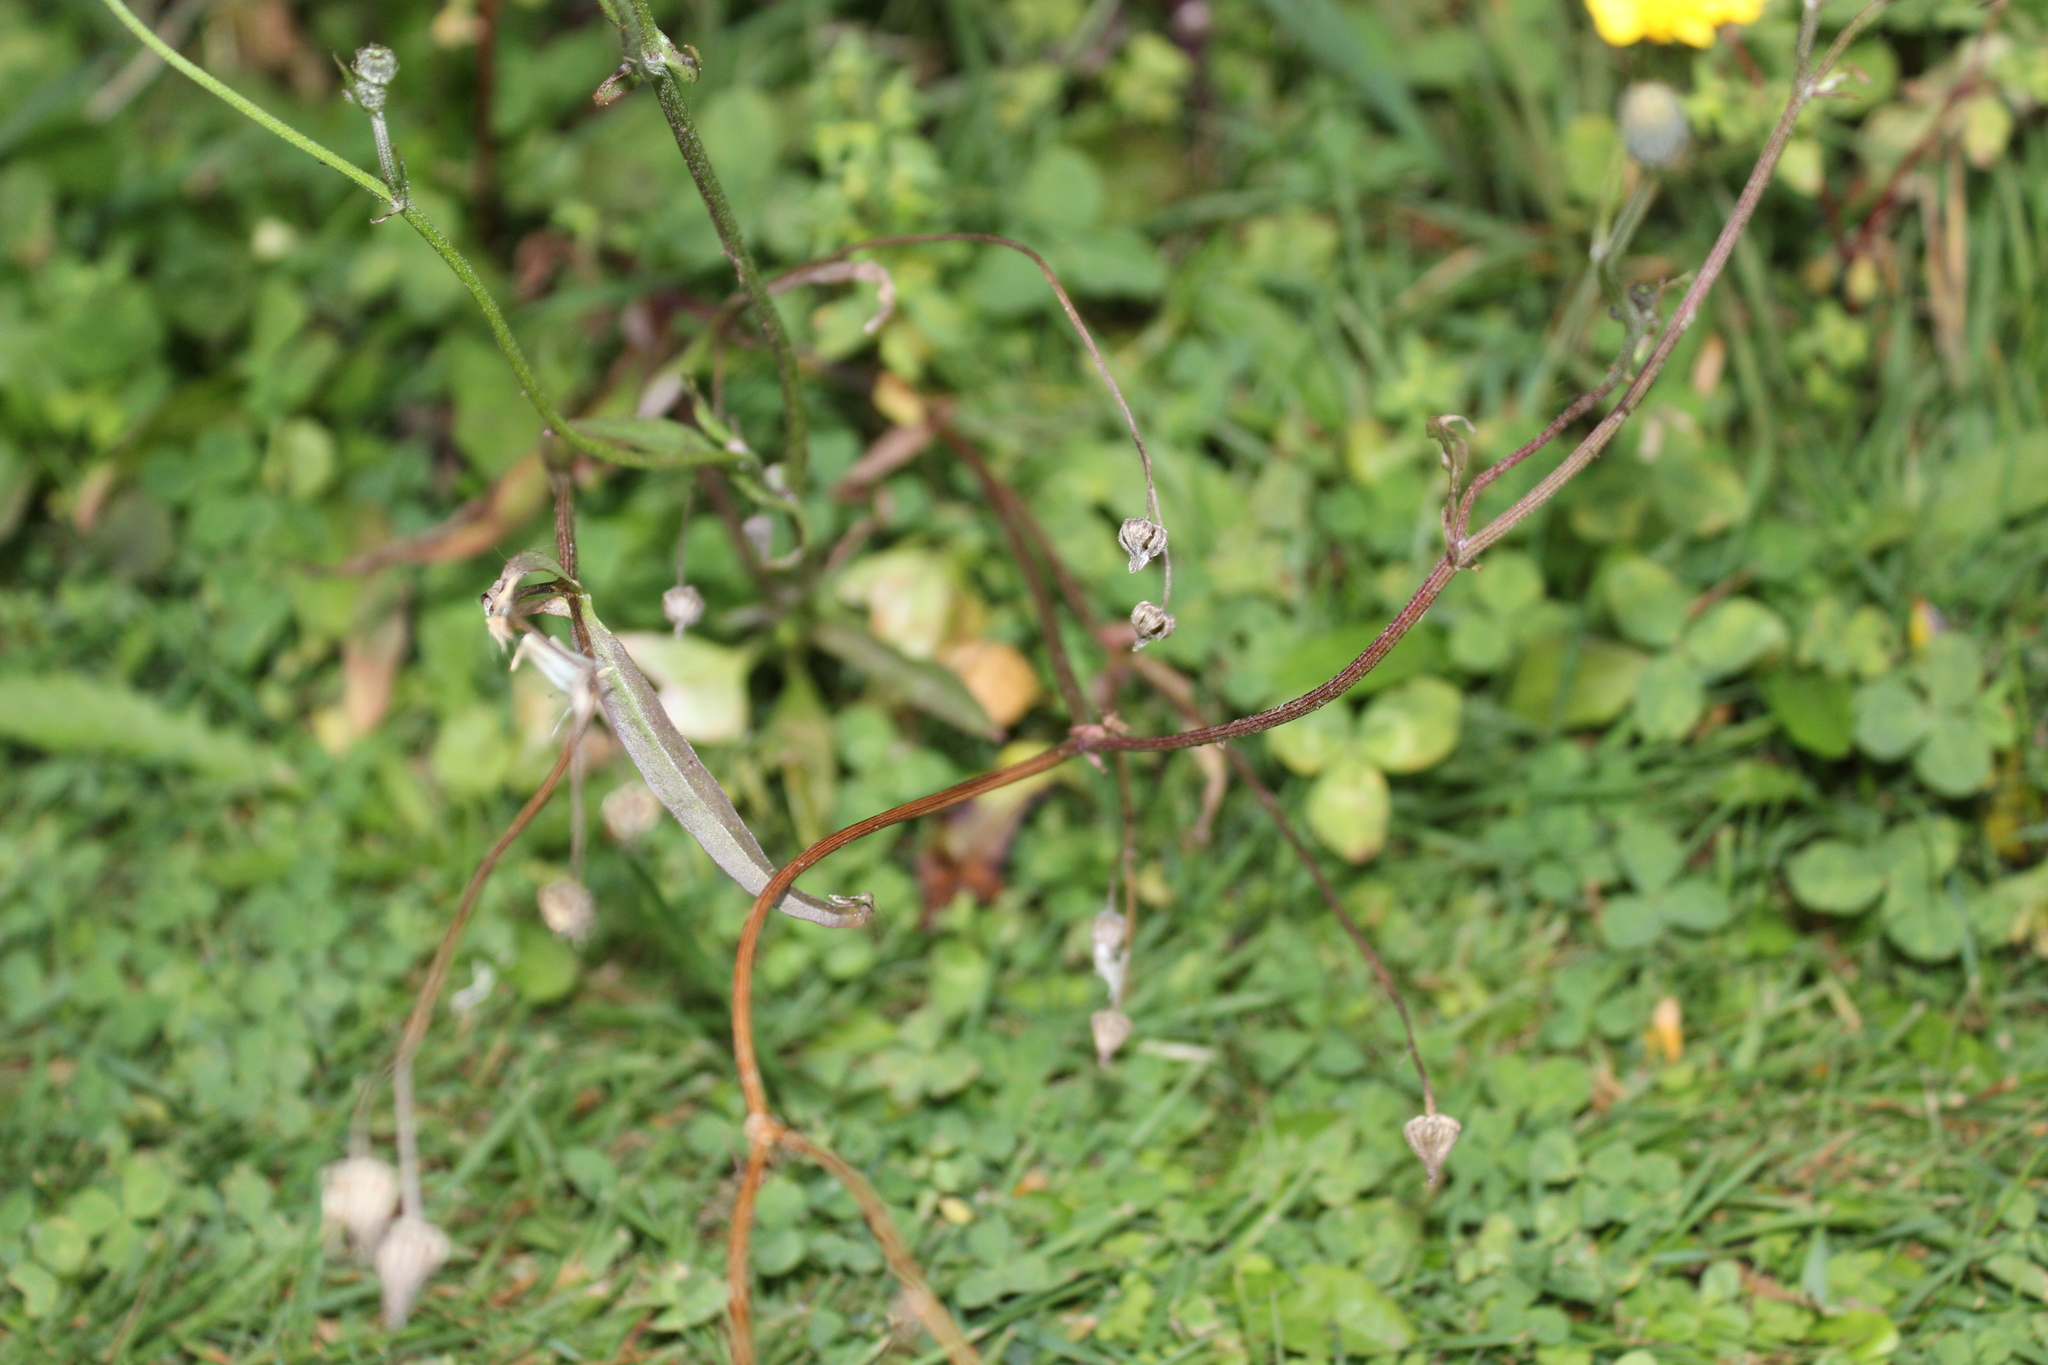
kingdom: Plantae
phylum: Tracheophyta
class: Magnoliopsida
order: Asterales
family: Asteraceae
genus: Sonchus
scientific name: Sonchus oleraceus
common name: Common sowthistle
